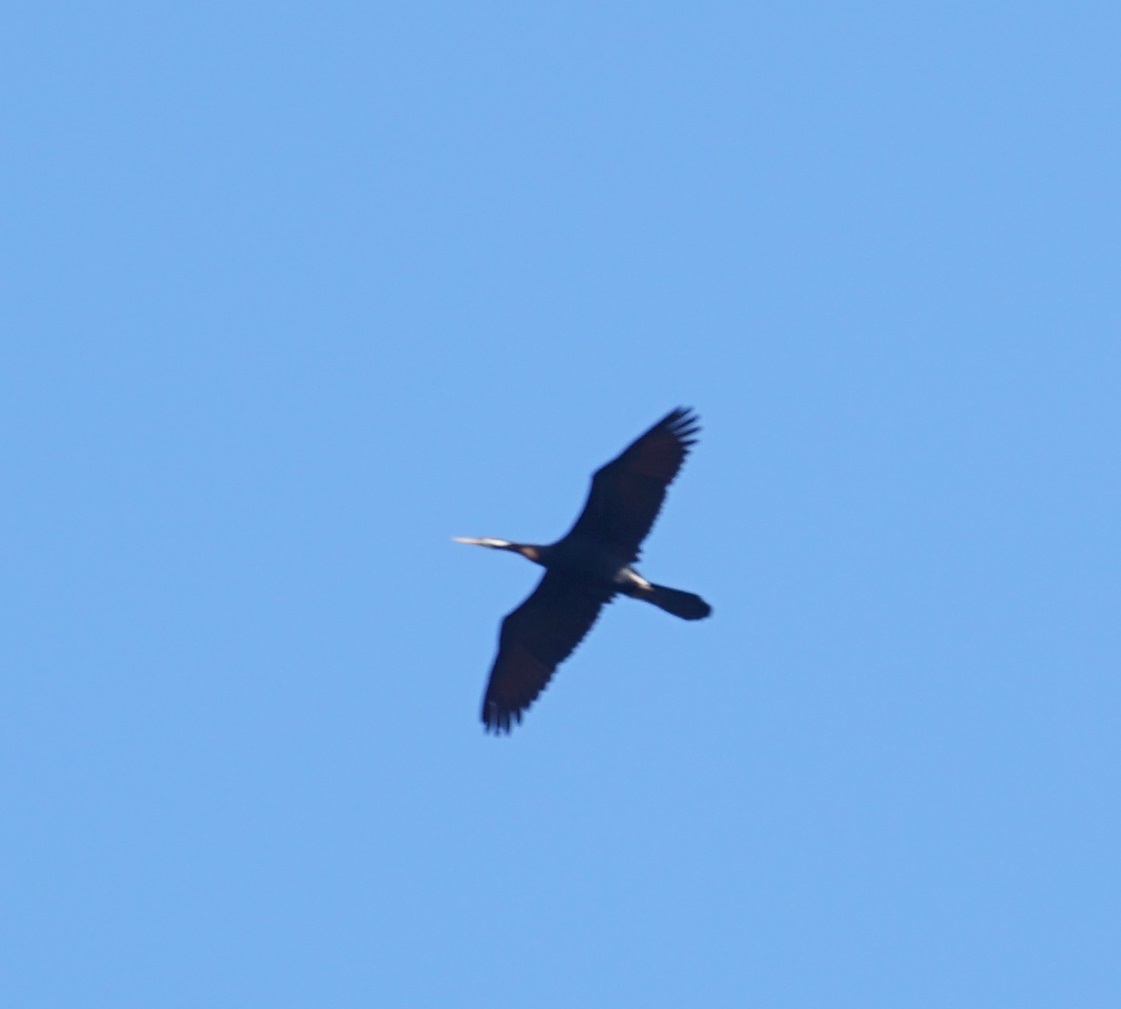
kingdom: Animalia
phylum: Chordata
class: Aves
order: Suliformes
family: Anhingidae
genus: Anhinga
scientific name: Anhinga novaehollandiae
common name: Australasian darter
